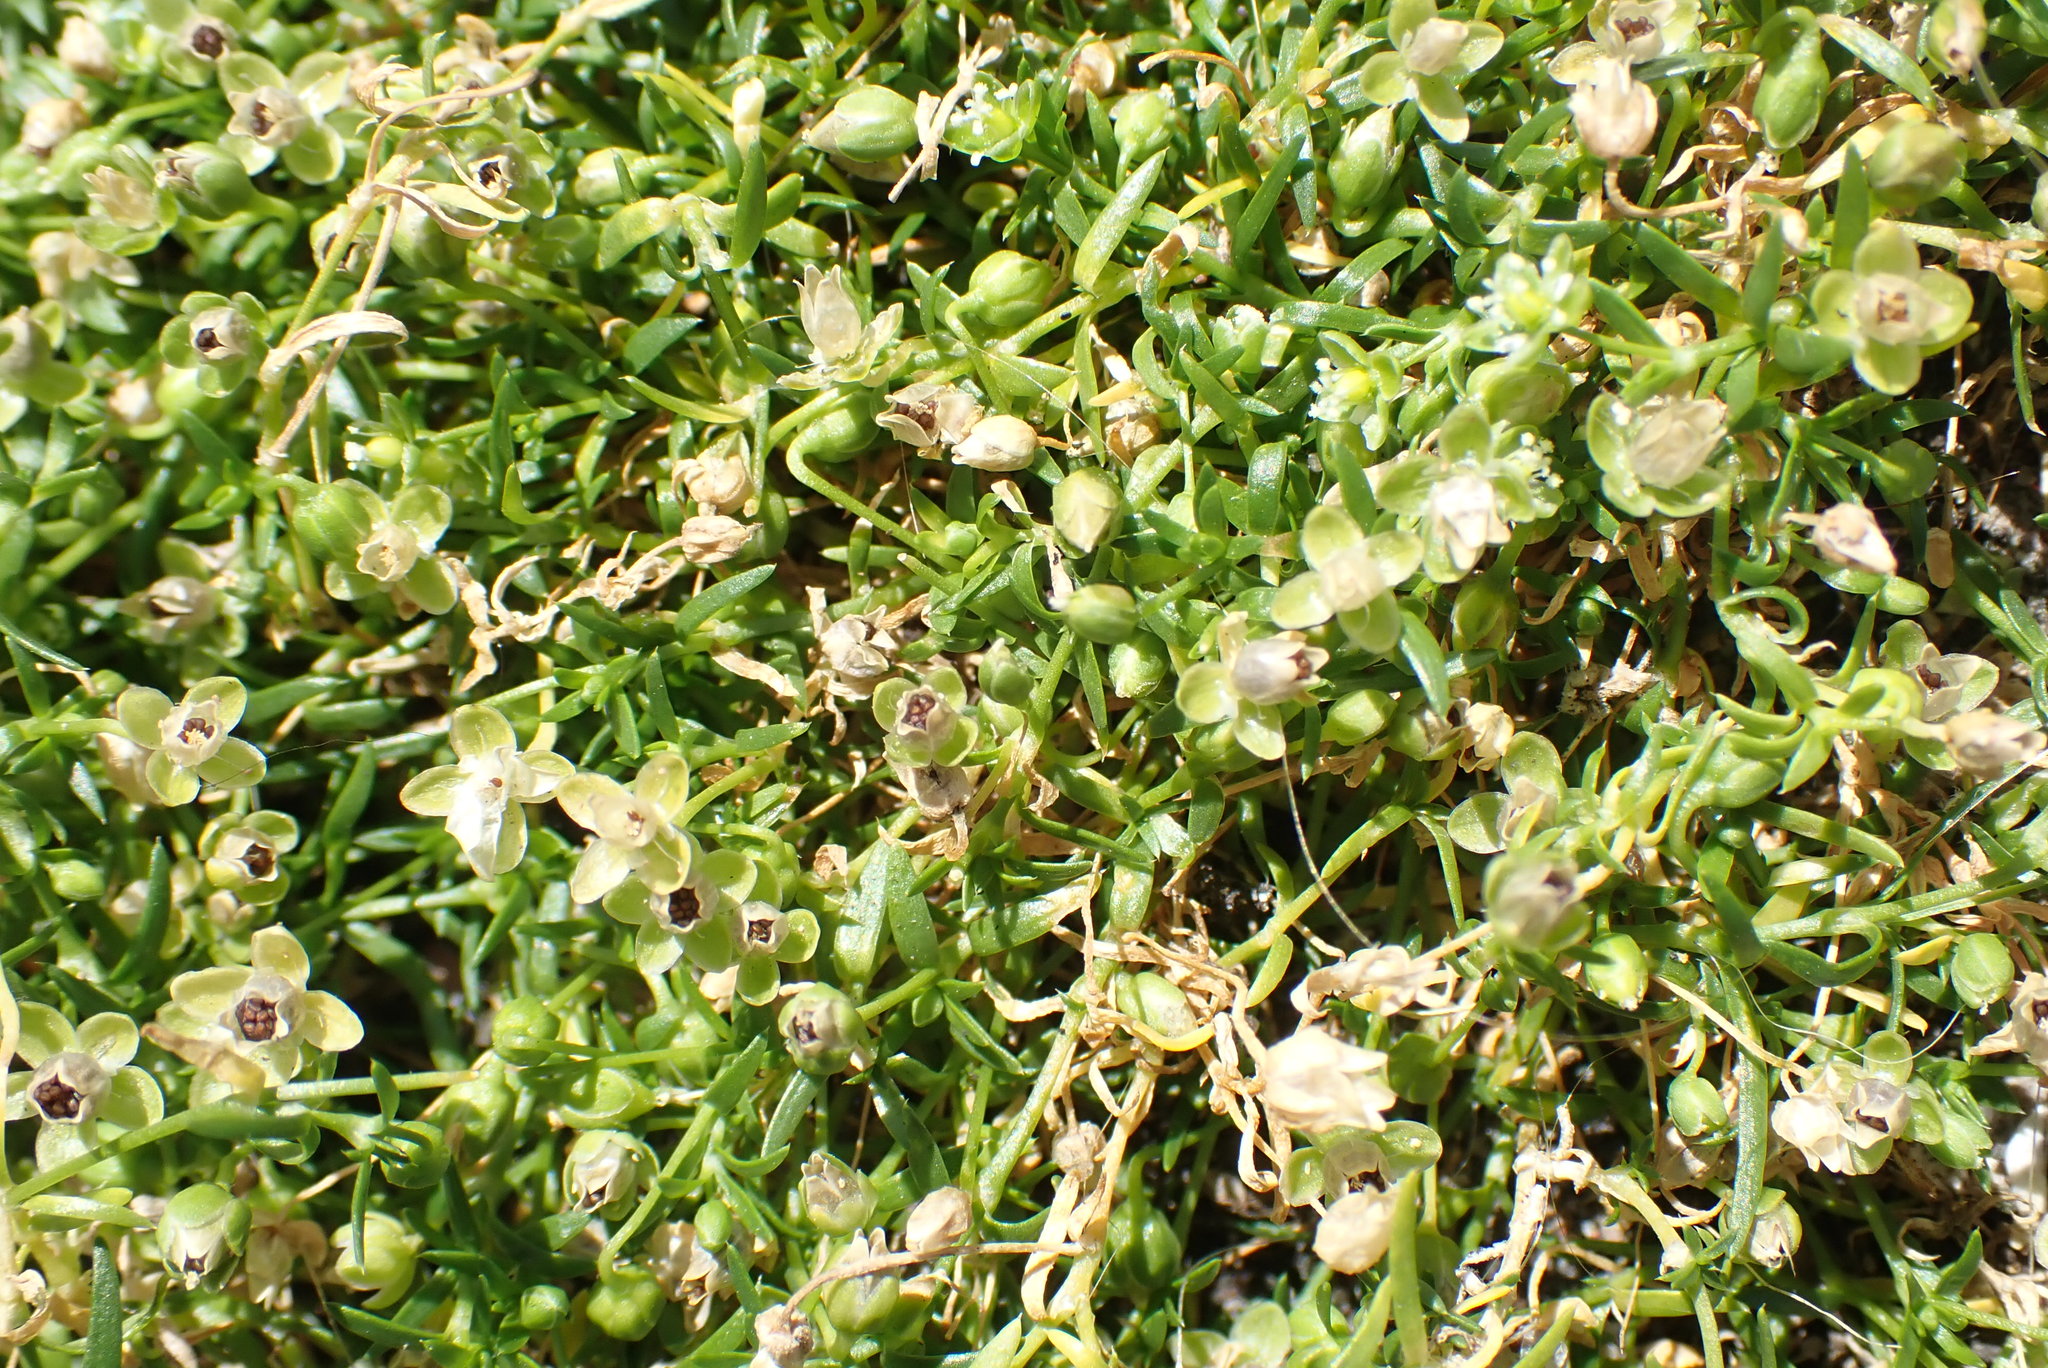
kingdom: Plantae
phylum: Tracheophyta
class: Magnoliopsida
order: Caryophyllales
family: Caryophyllaceae
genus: Sagina
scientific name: Sagina procumbens
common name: Procumbent pearlwort
